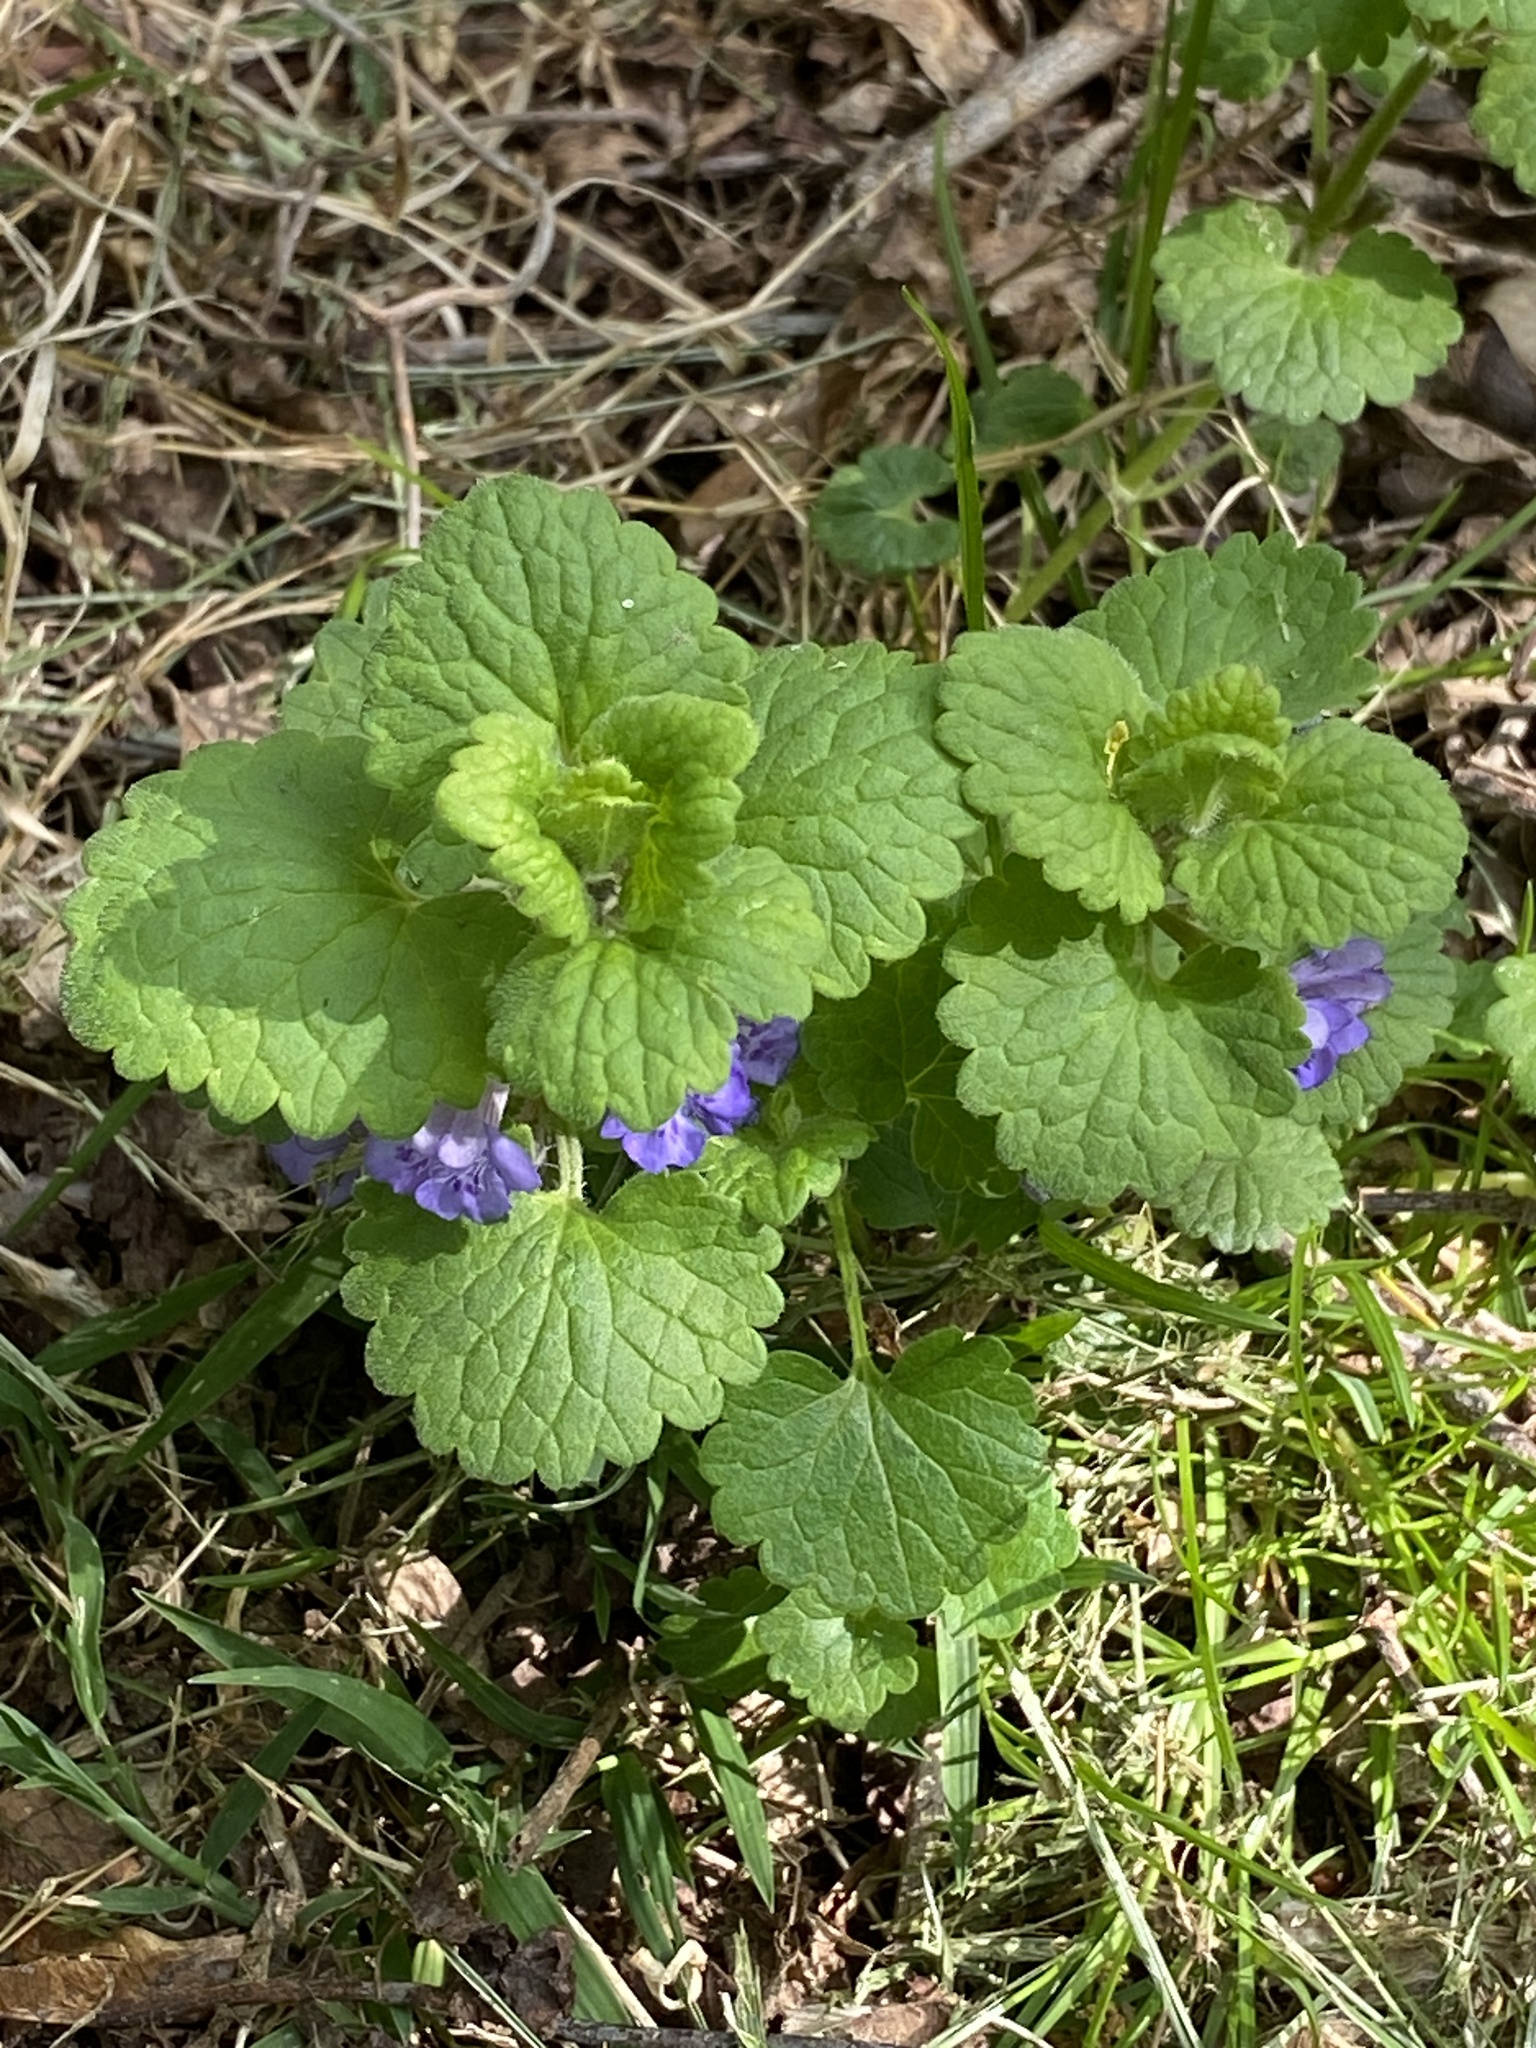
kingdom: Plantae
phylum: Tracheophyta
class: Magnoliopsida
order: Lamiales
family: Lamiaceae
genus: Glechoma
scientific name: Glechoma hederacea
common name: Ground ivy
